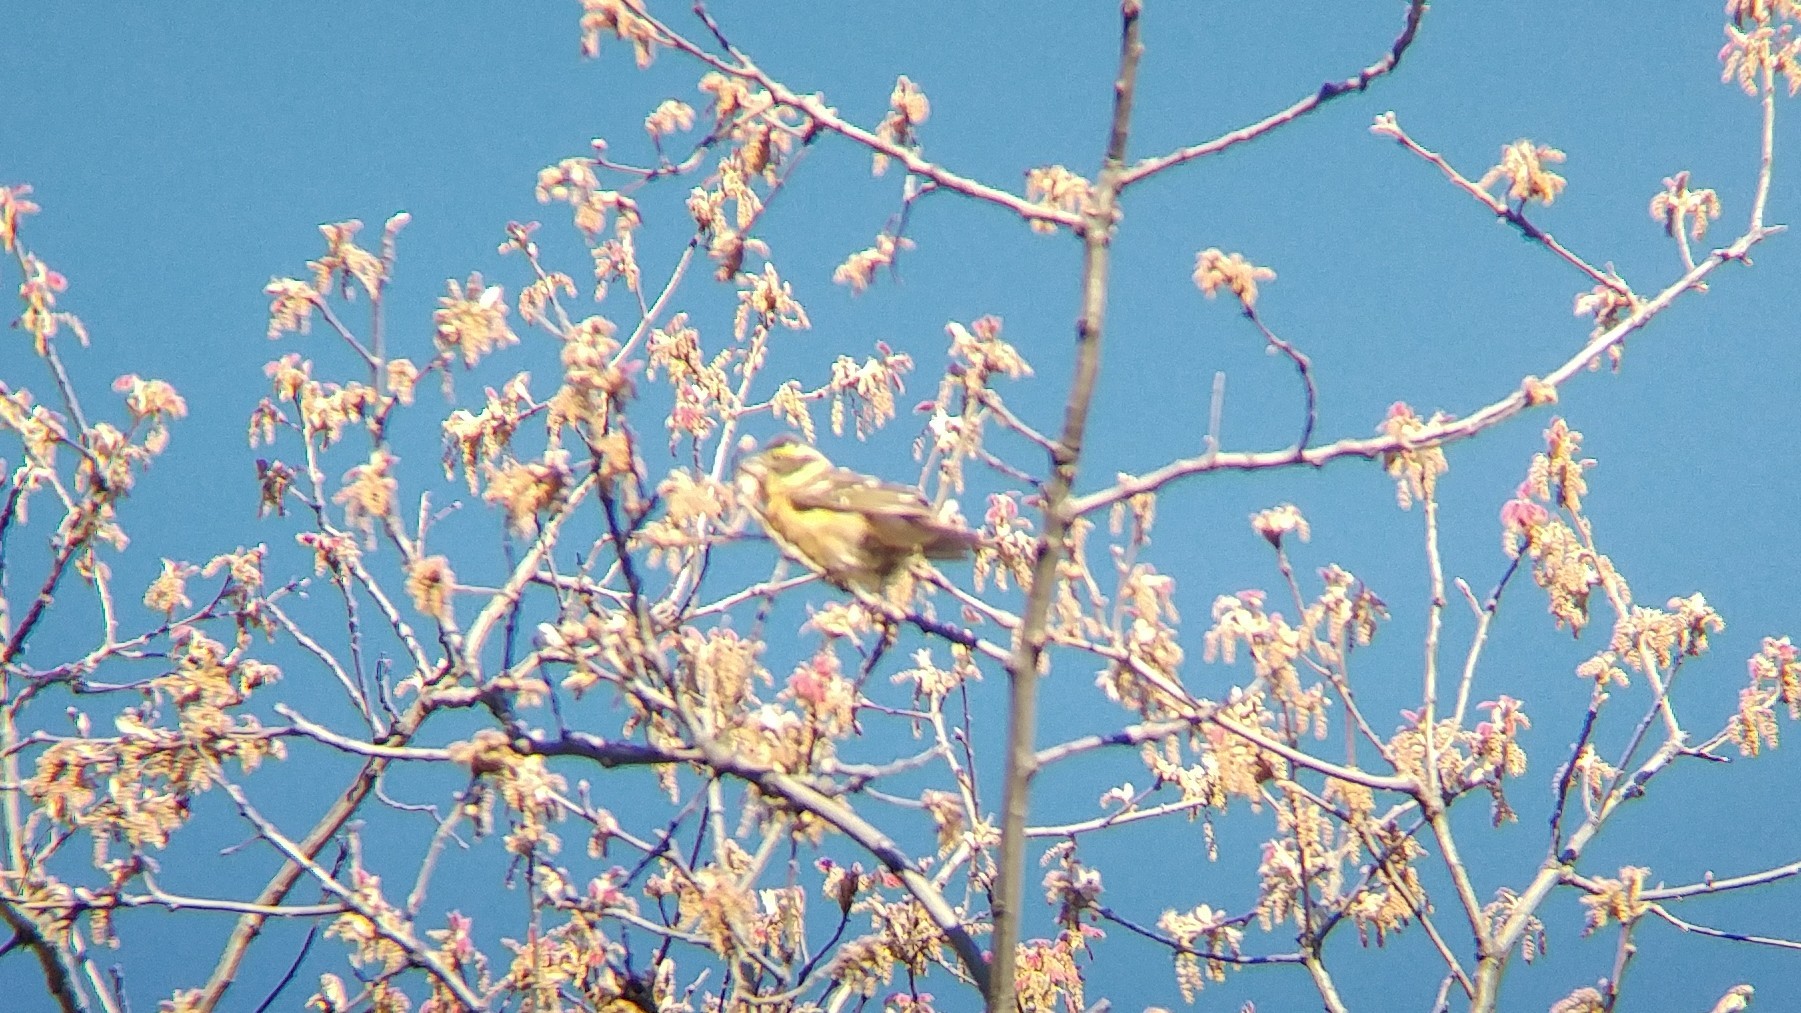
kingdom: Animalia
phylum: Chordata
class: Aves
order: Passeriformes
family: Cardinalidae
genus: Pheucticus
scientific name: Pheucticus melanocephalus
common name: Black-headed grosbeak
